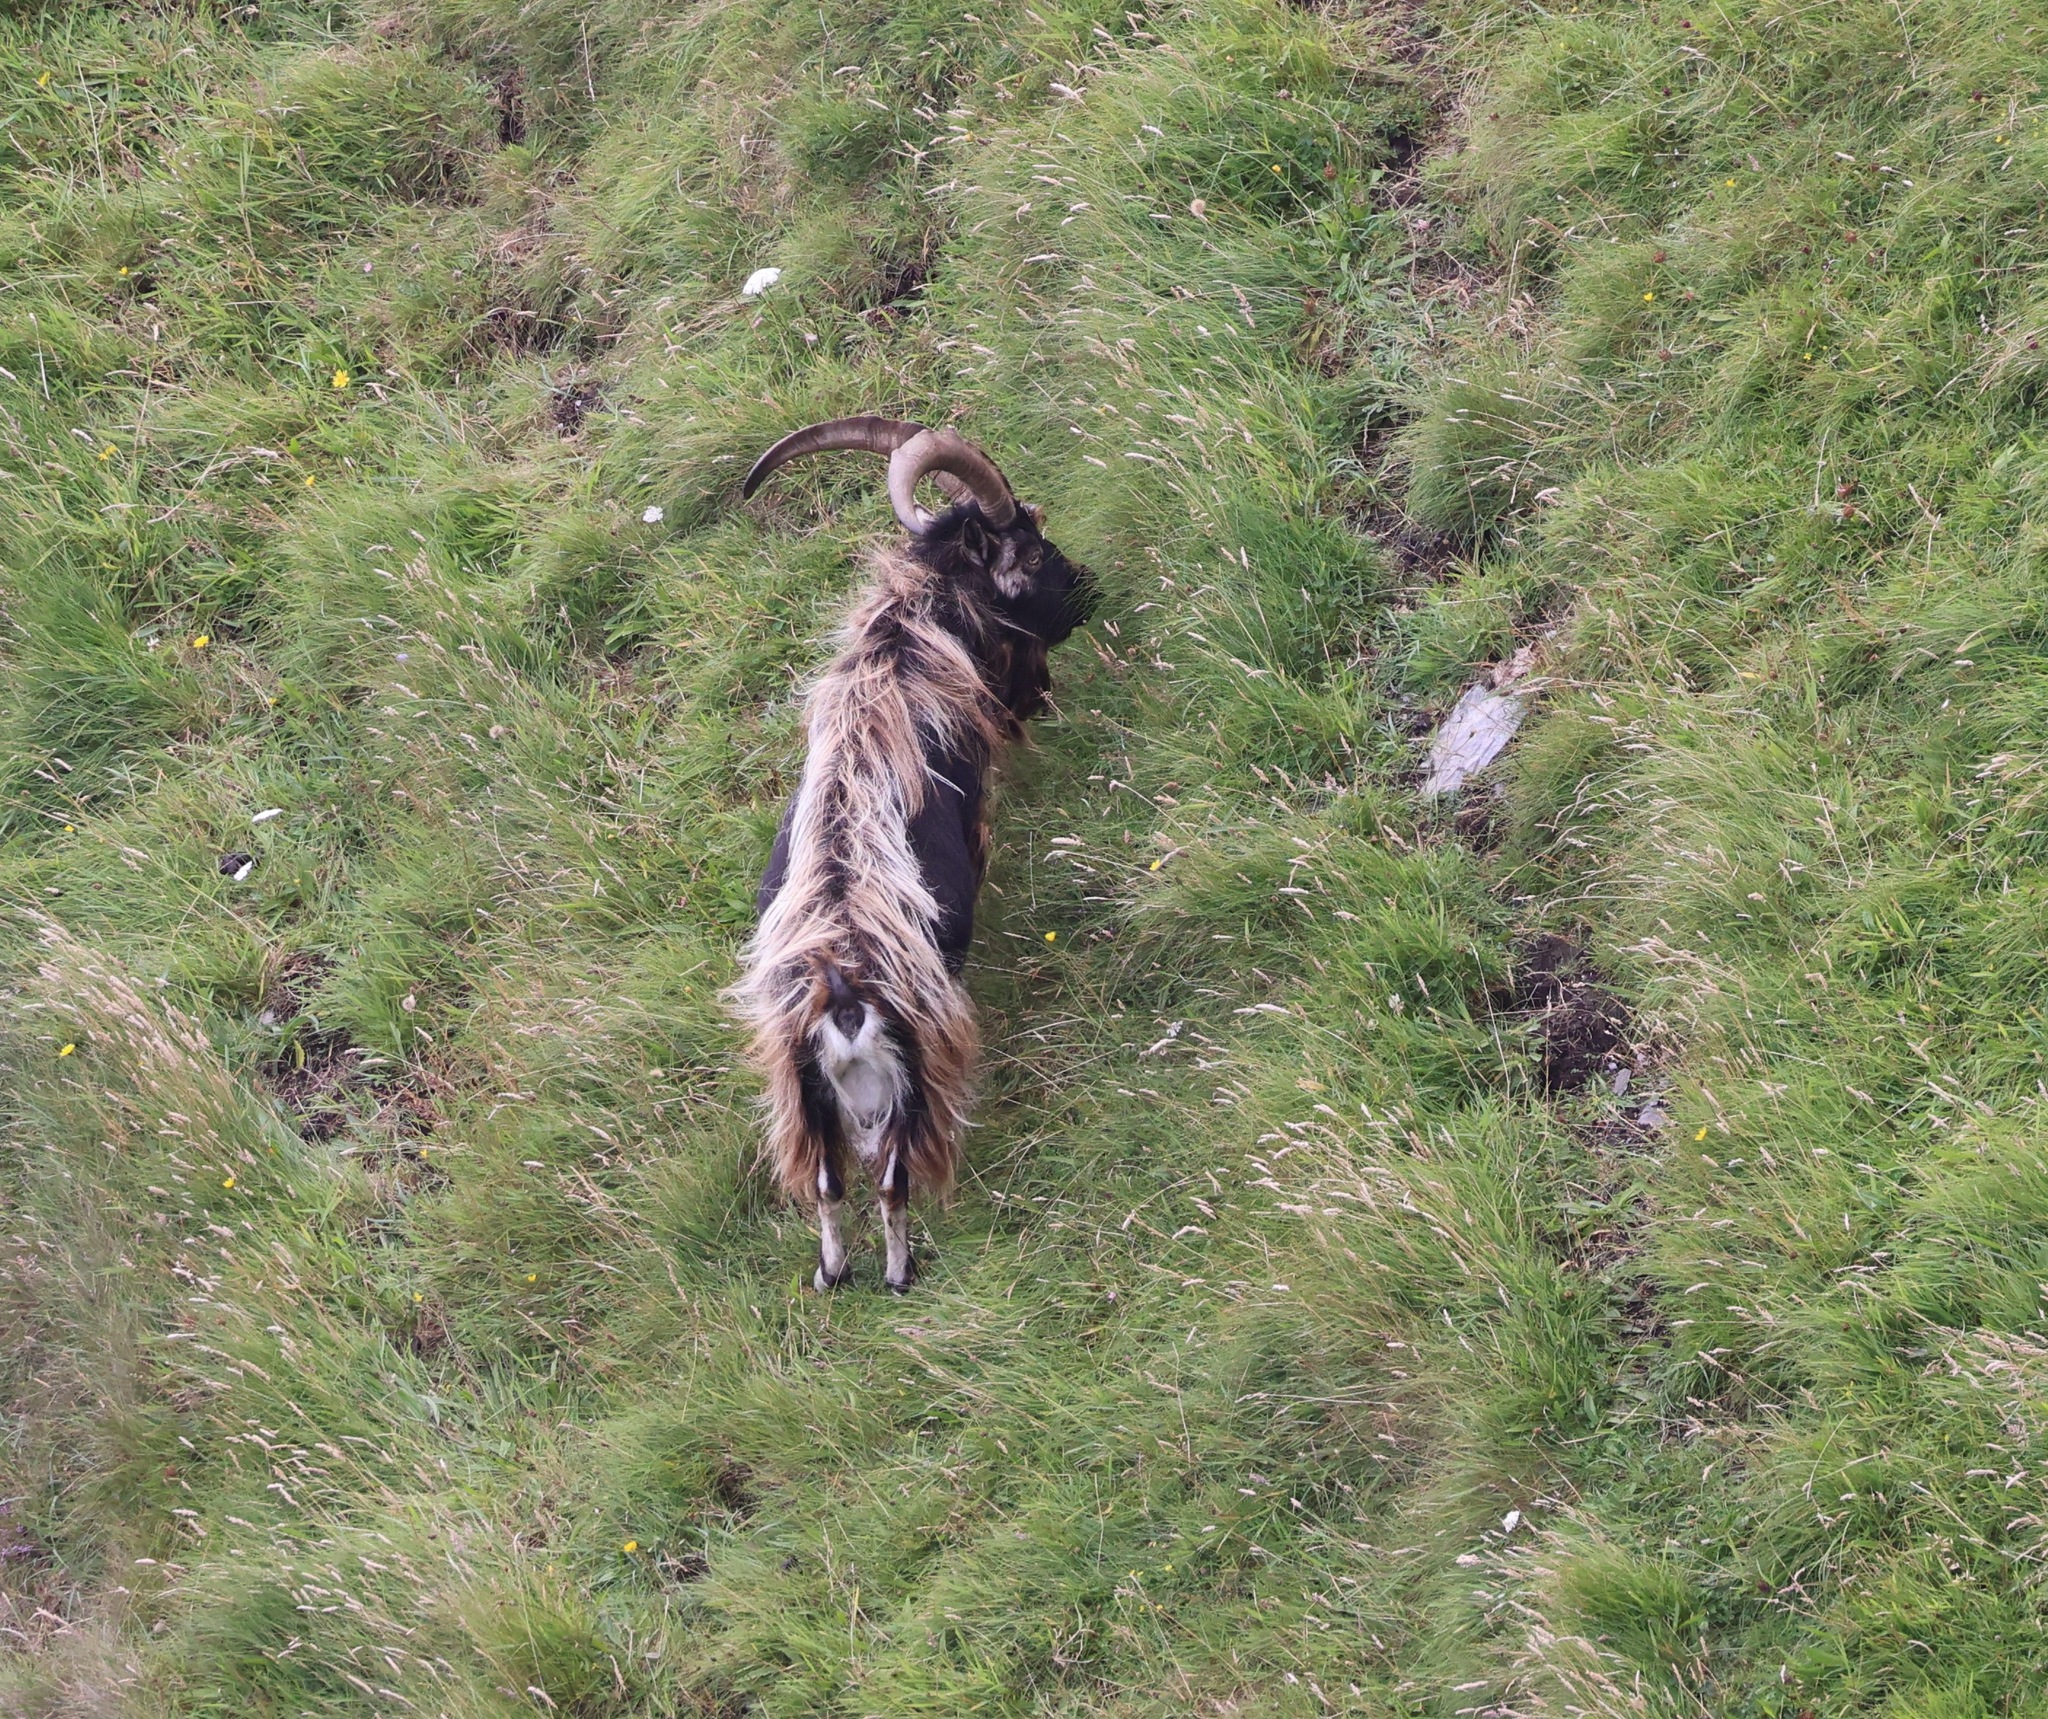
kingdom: Animalia
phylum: Chordata
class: Mammalia
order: Artiodactyla
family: Bovidae
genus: Capra
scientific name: Capra hircus
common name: Domestic goat
